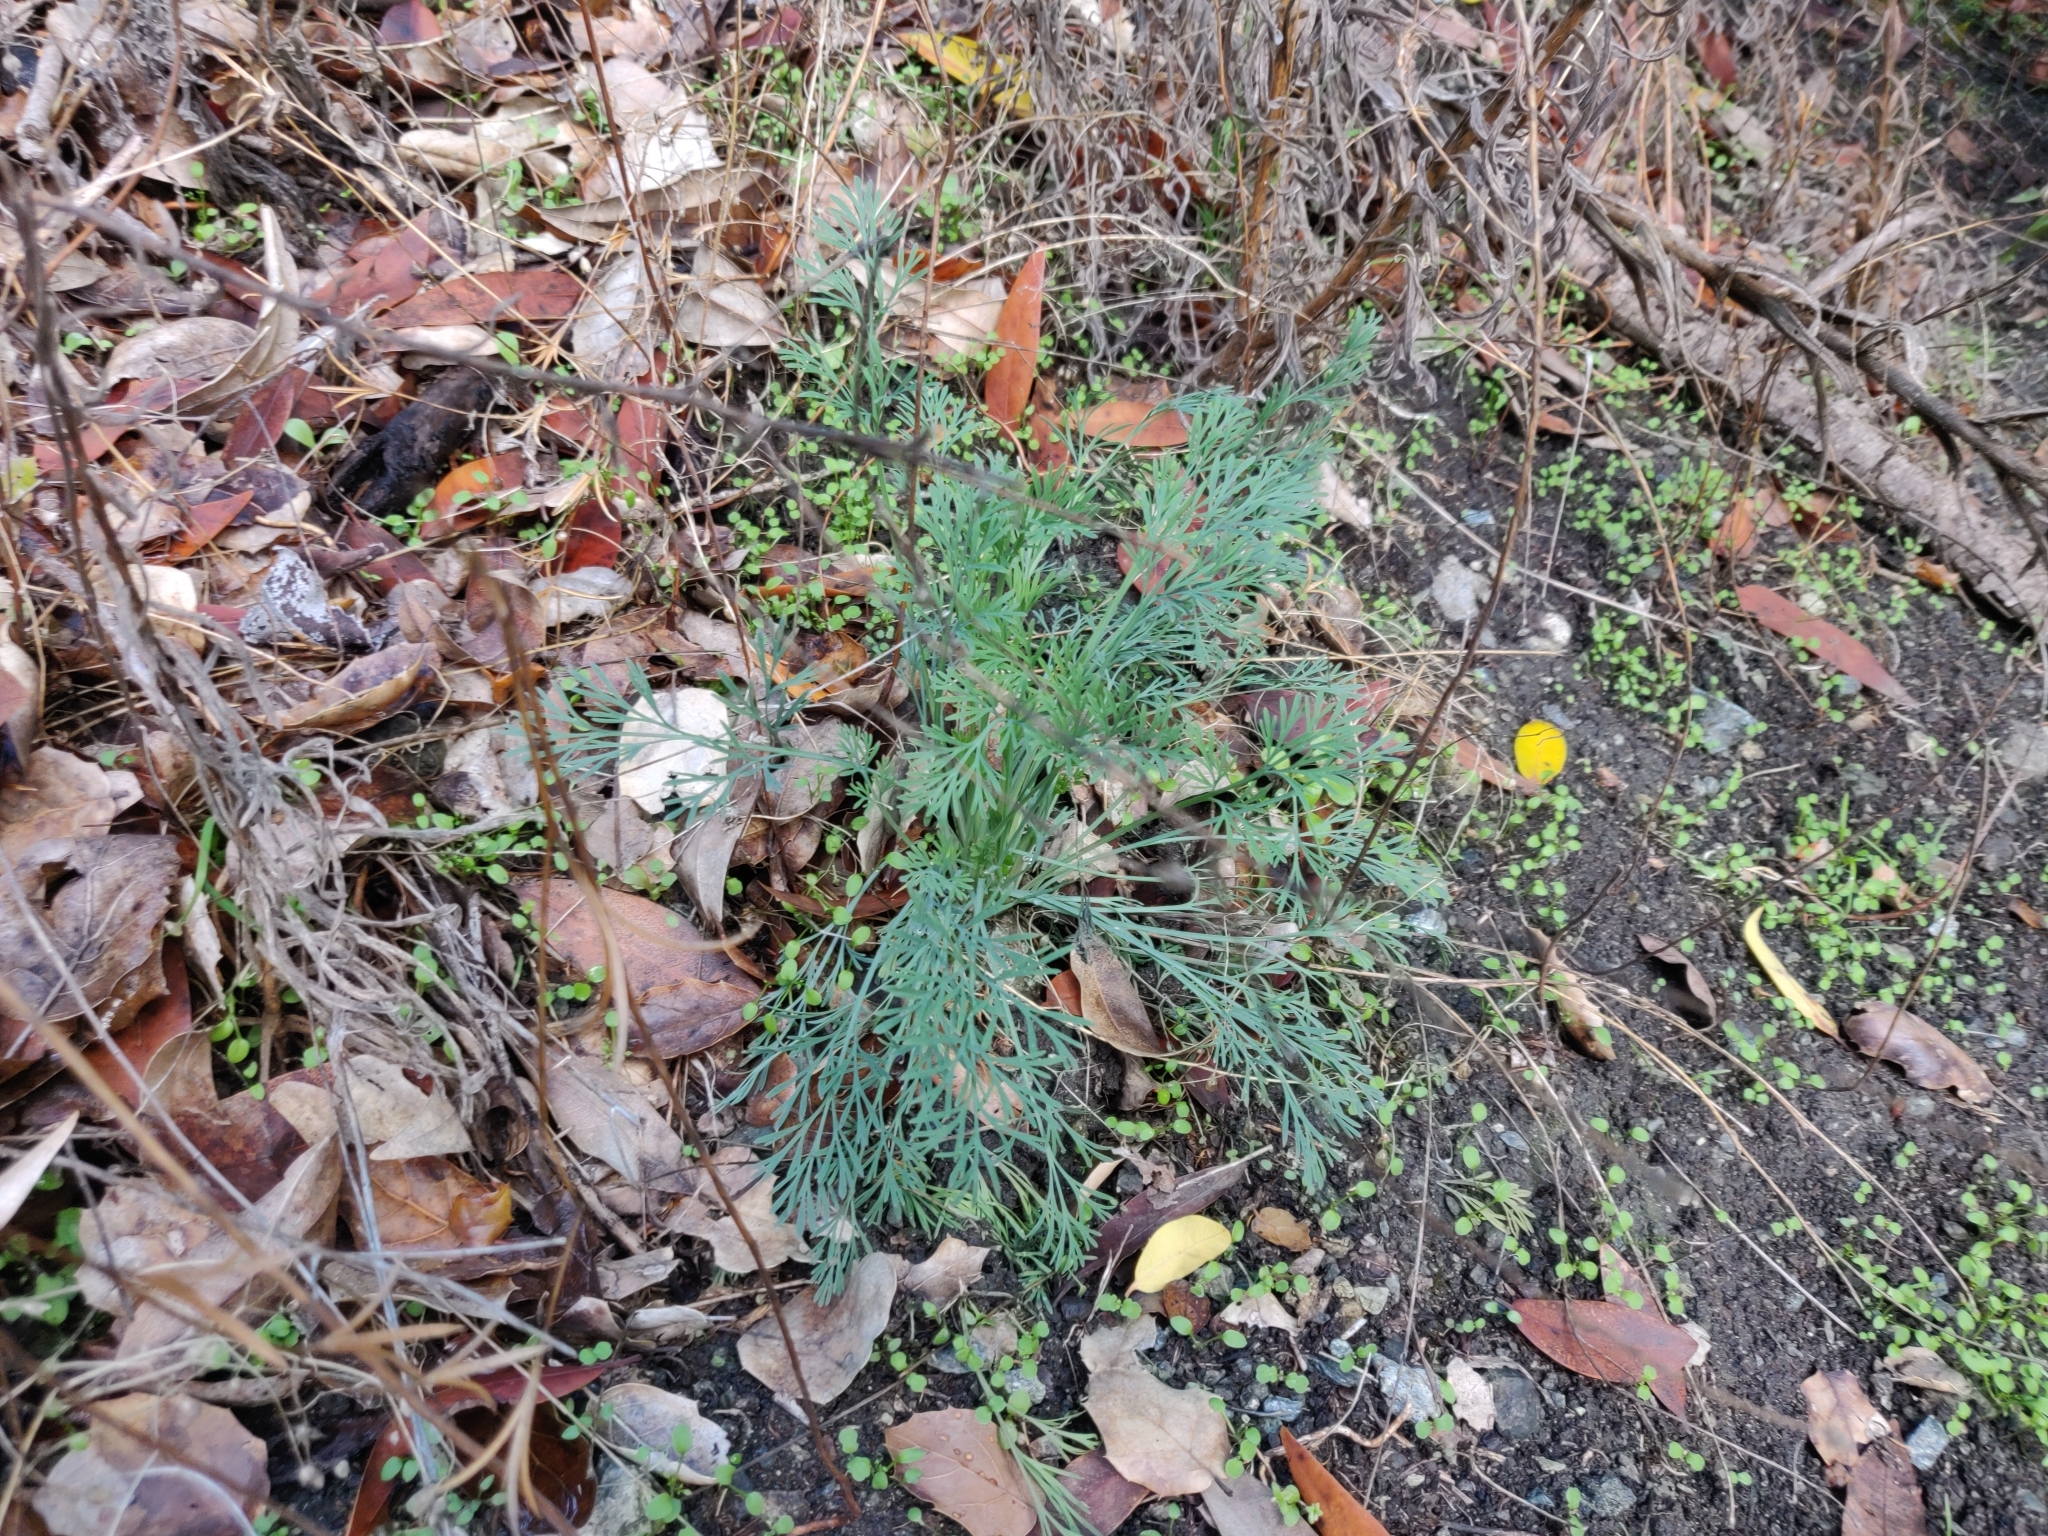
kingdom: Plantae
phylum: Tracheophyta
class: Magnoliopsida
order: Ranunculales
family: Papaveraceae
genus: Eschscholzia
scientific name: Eschscholzia californica
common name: California poppy
